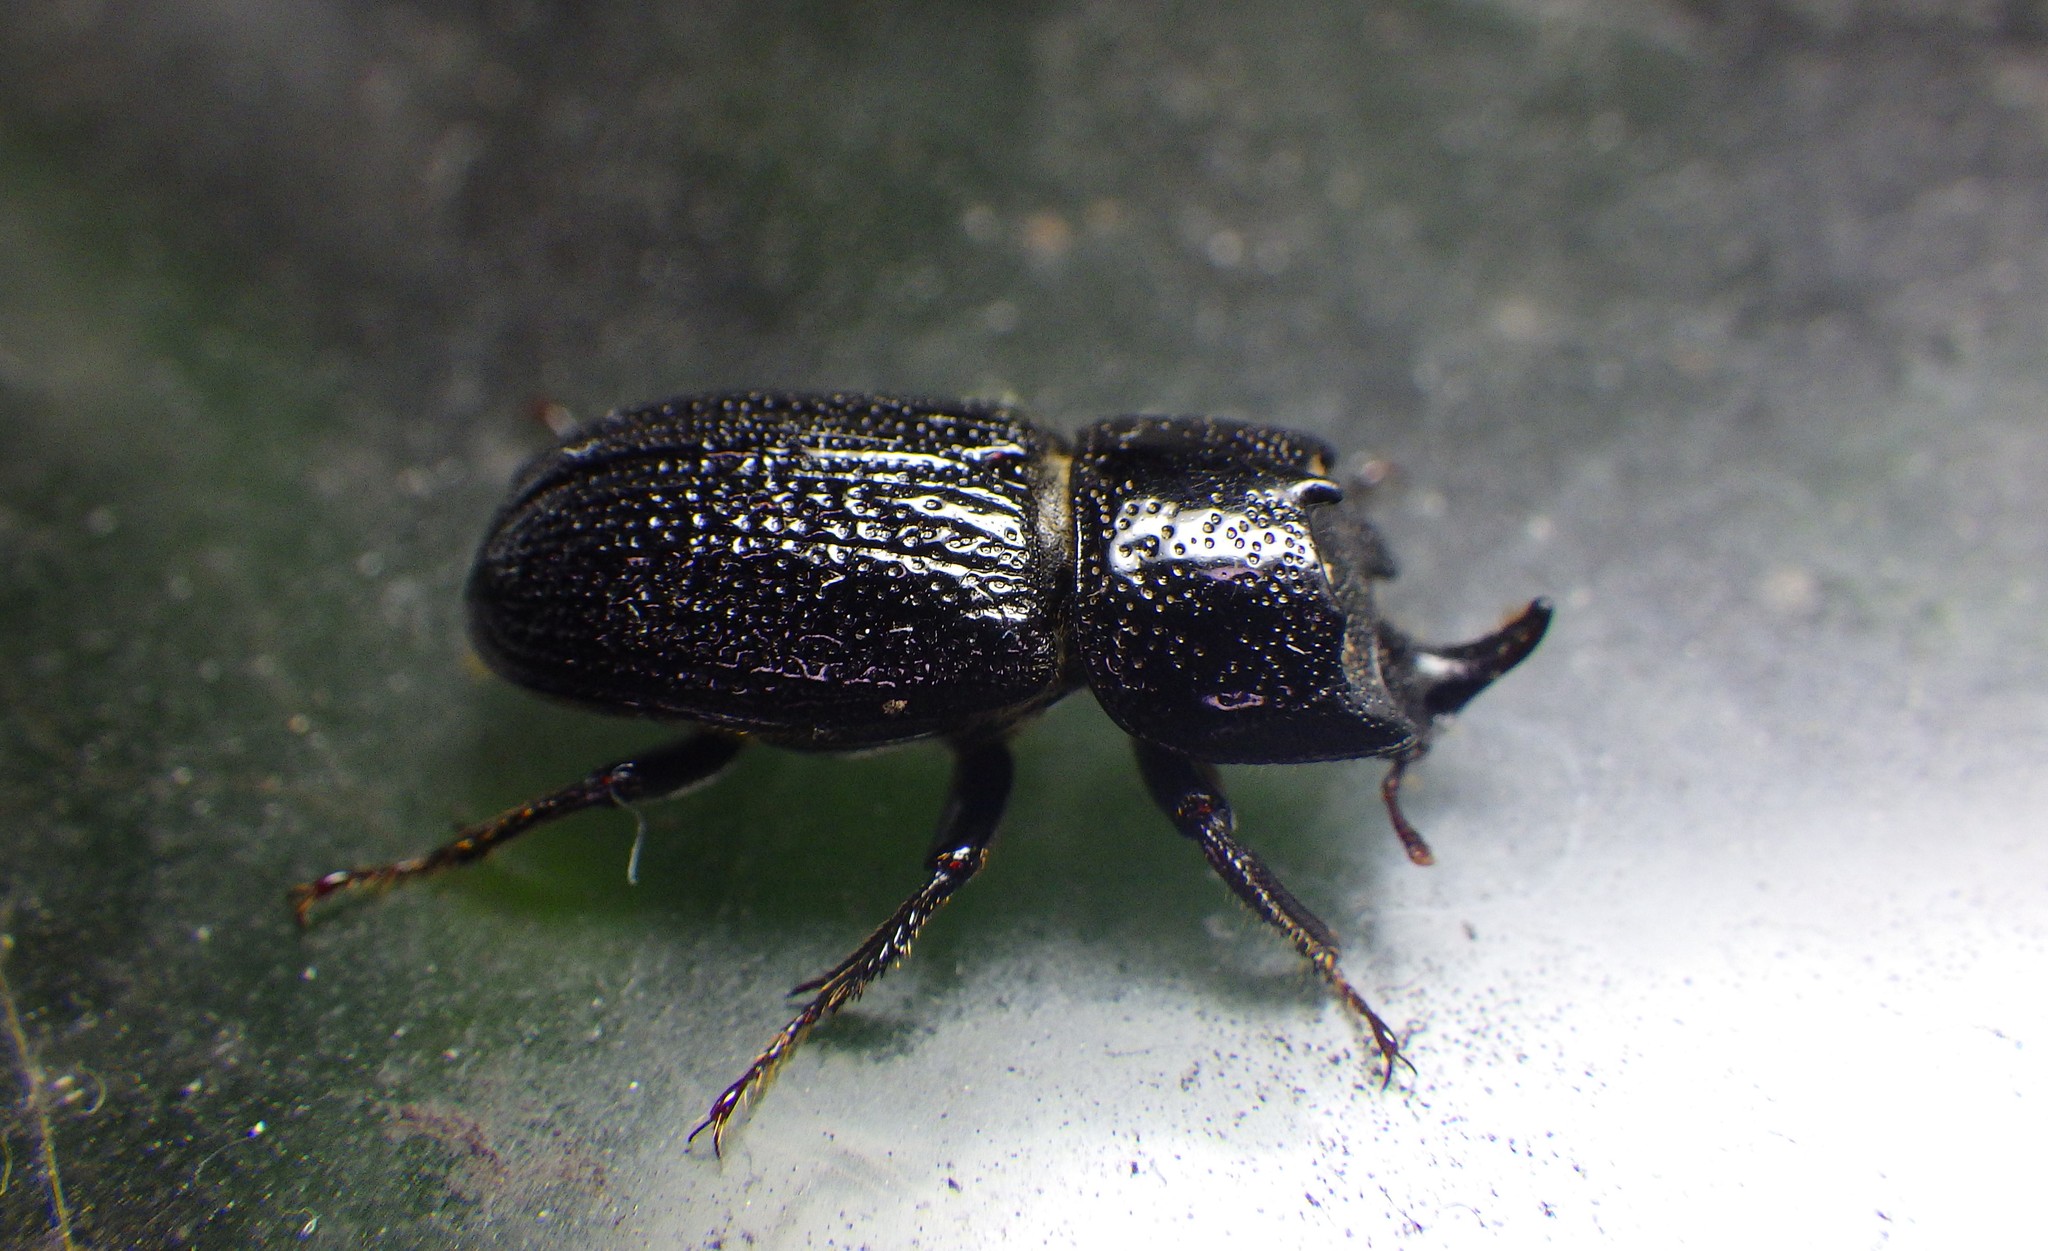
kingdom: Animalia
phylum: Arthropoda
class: Insecta
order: Coleoptera
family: Lucanidae
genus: Sinodendron
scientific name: Sinodendron cylindricum
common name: Rhinoceros beetle
